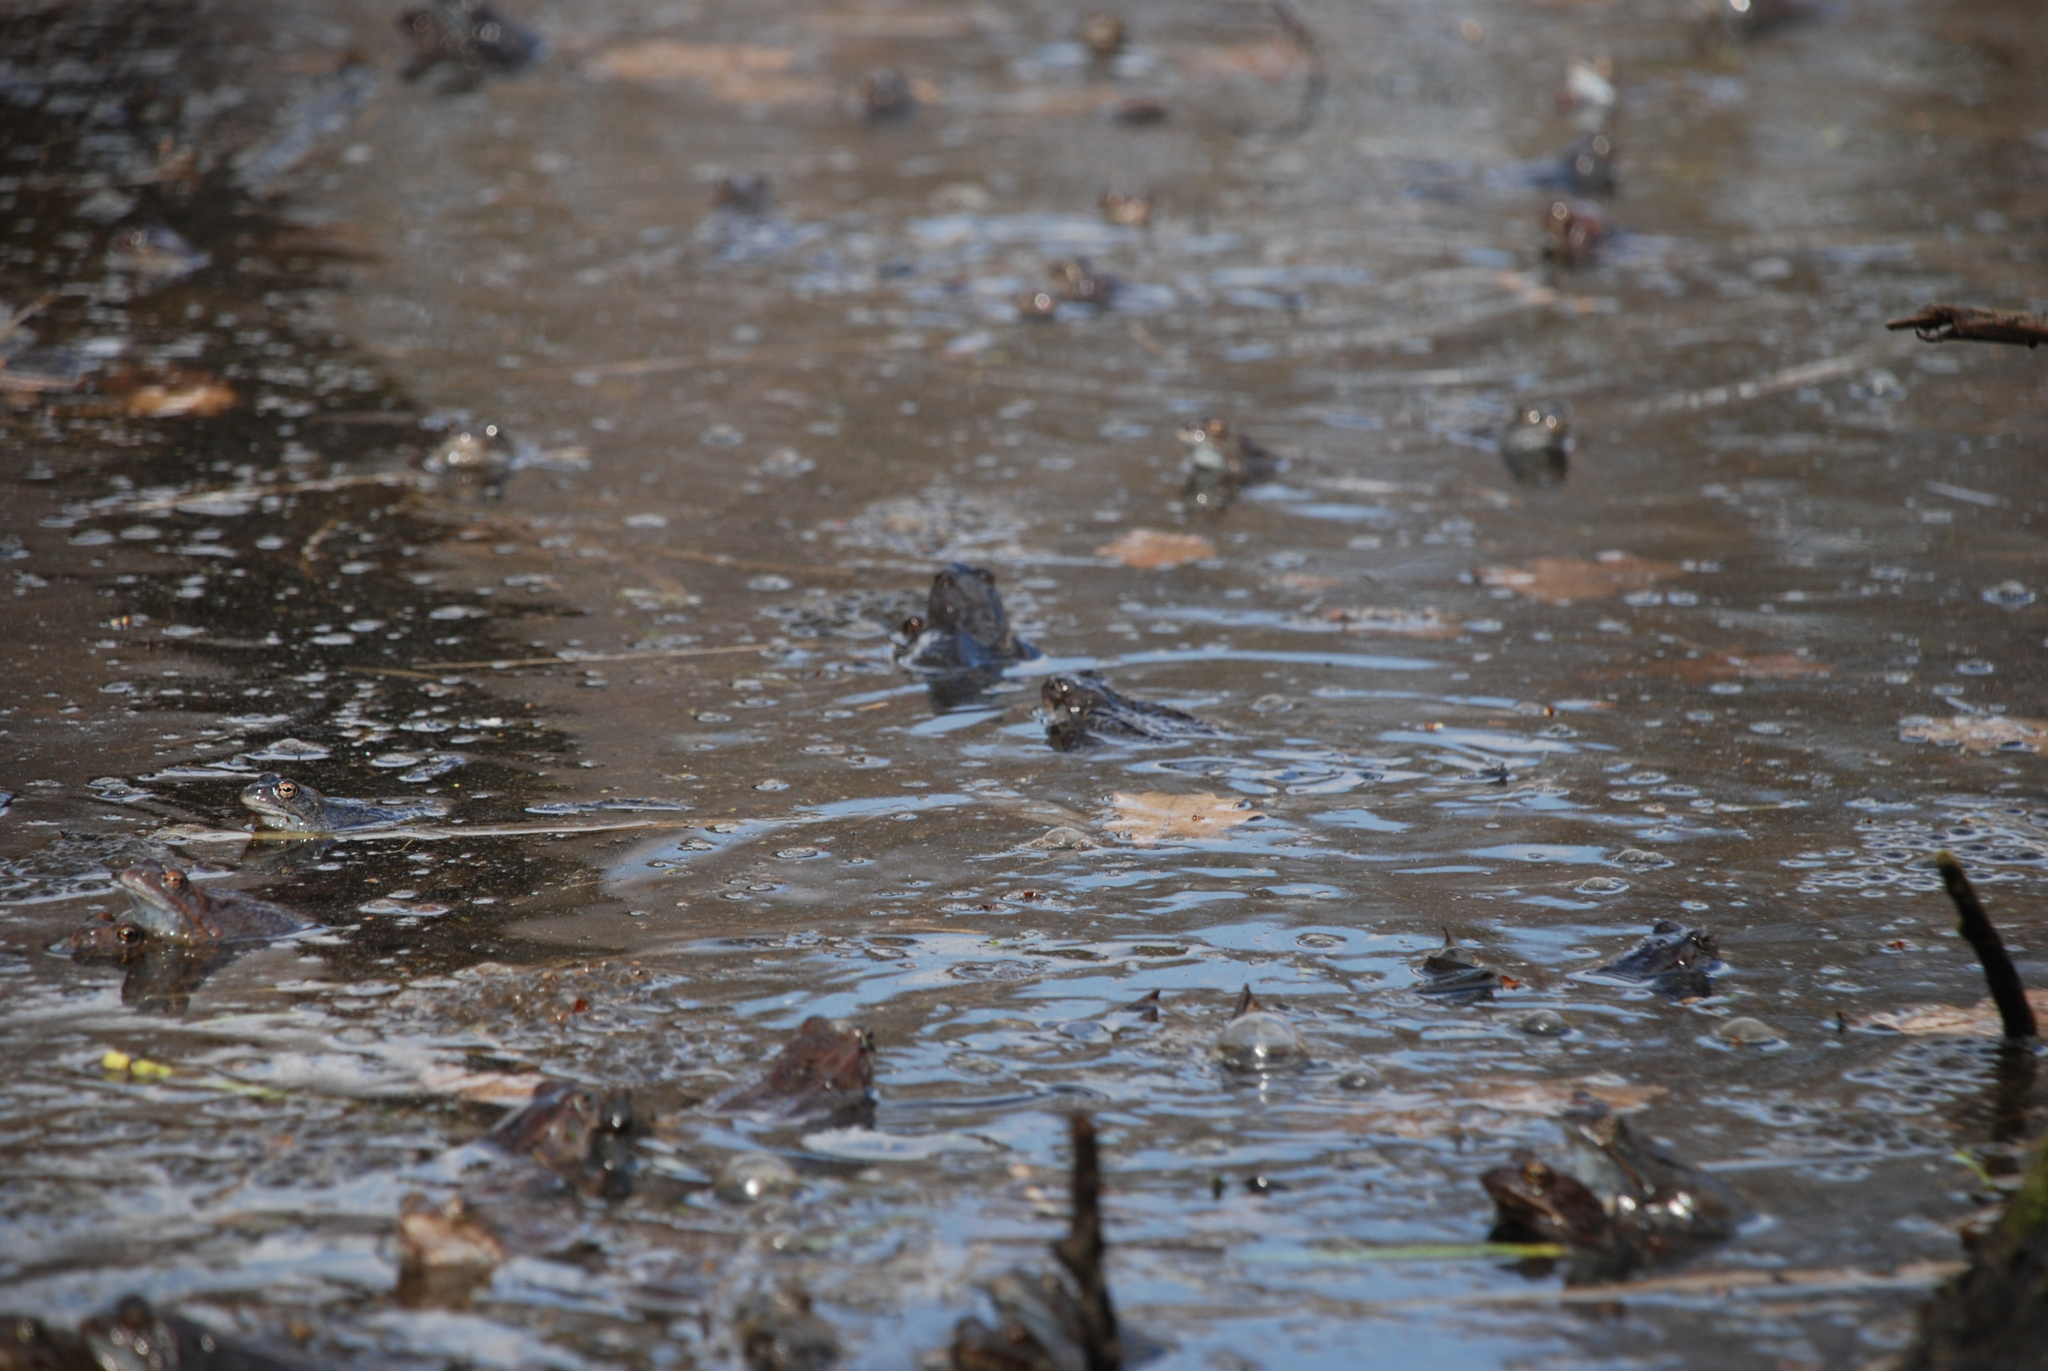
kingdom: Animalia
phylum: Chordata
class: Amphibia
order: Anura
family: Ranidae
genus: Rana
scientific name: Rana temporaria
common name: Common frog
